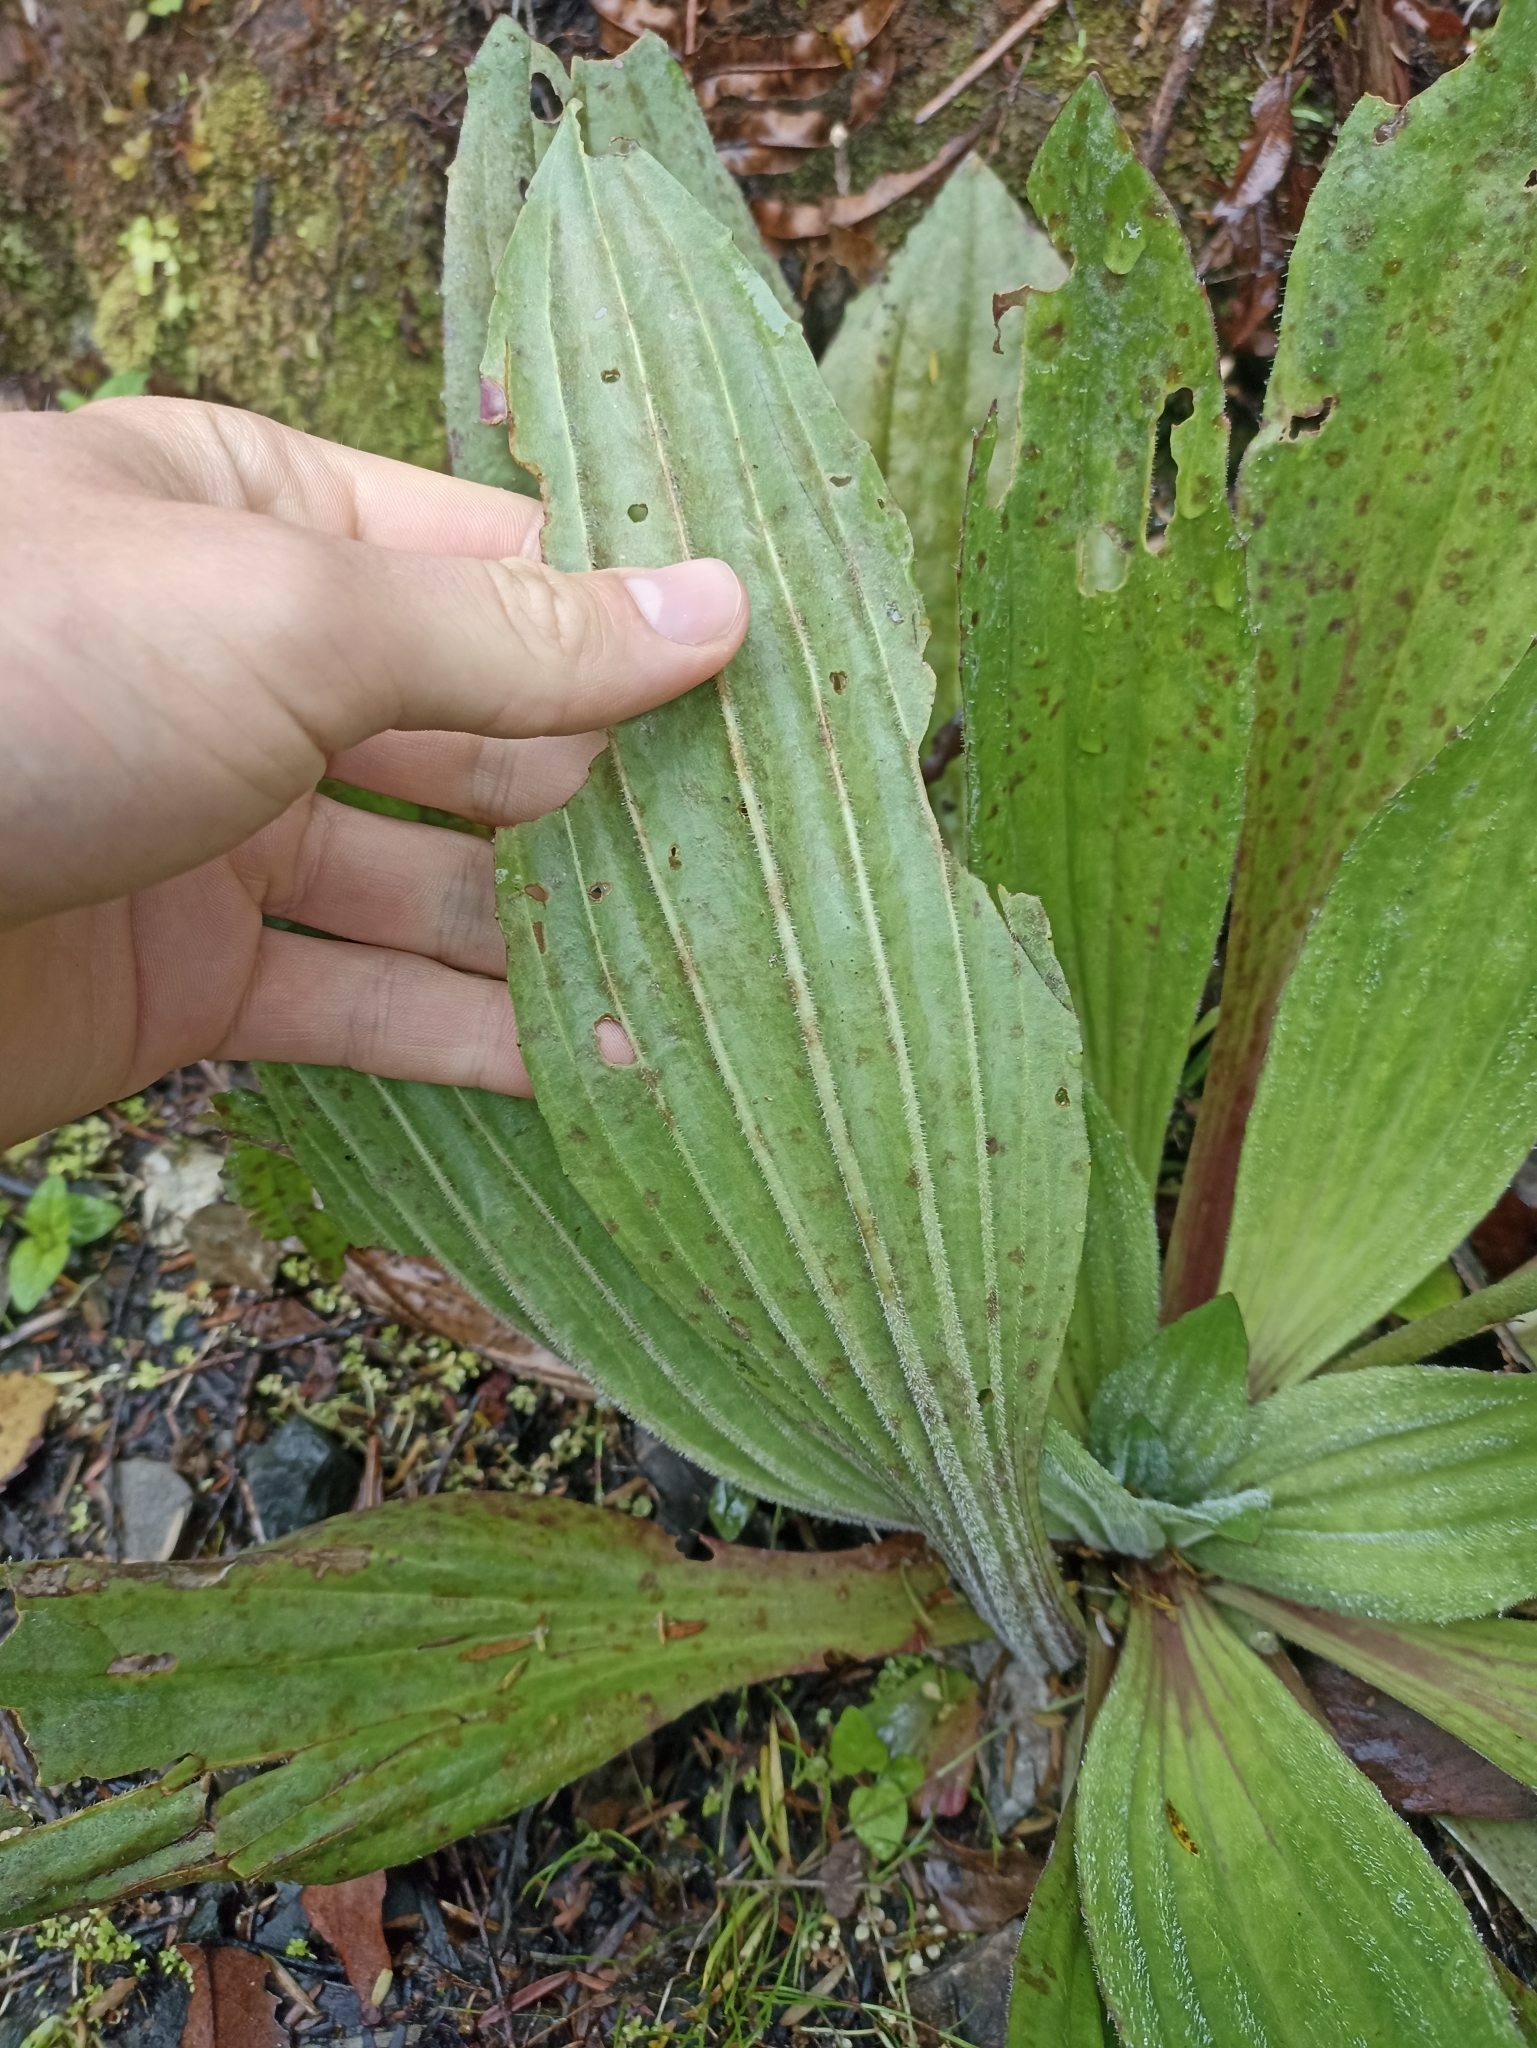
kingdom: Plantae
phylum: Tracheophyta
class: Magnoliopsida
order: Lamiales
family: Plantaginaceae
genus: Plantago
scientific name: Plantago australis
